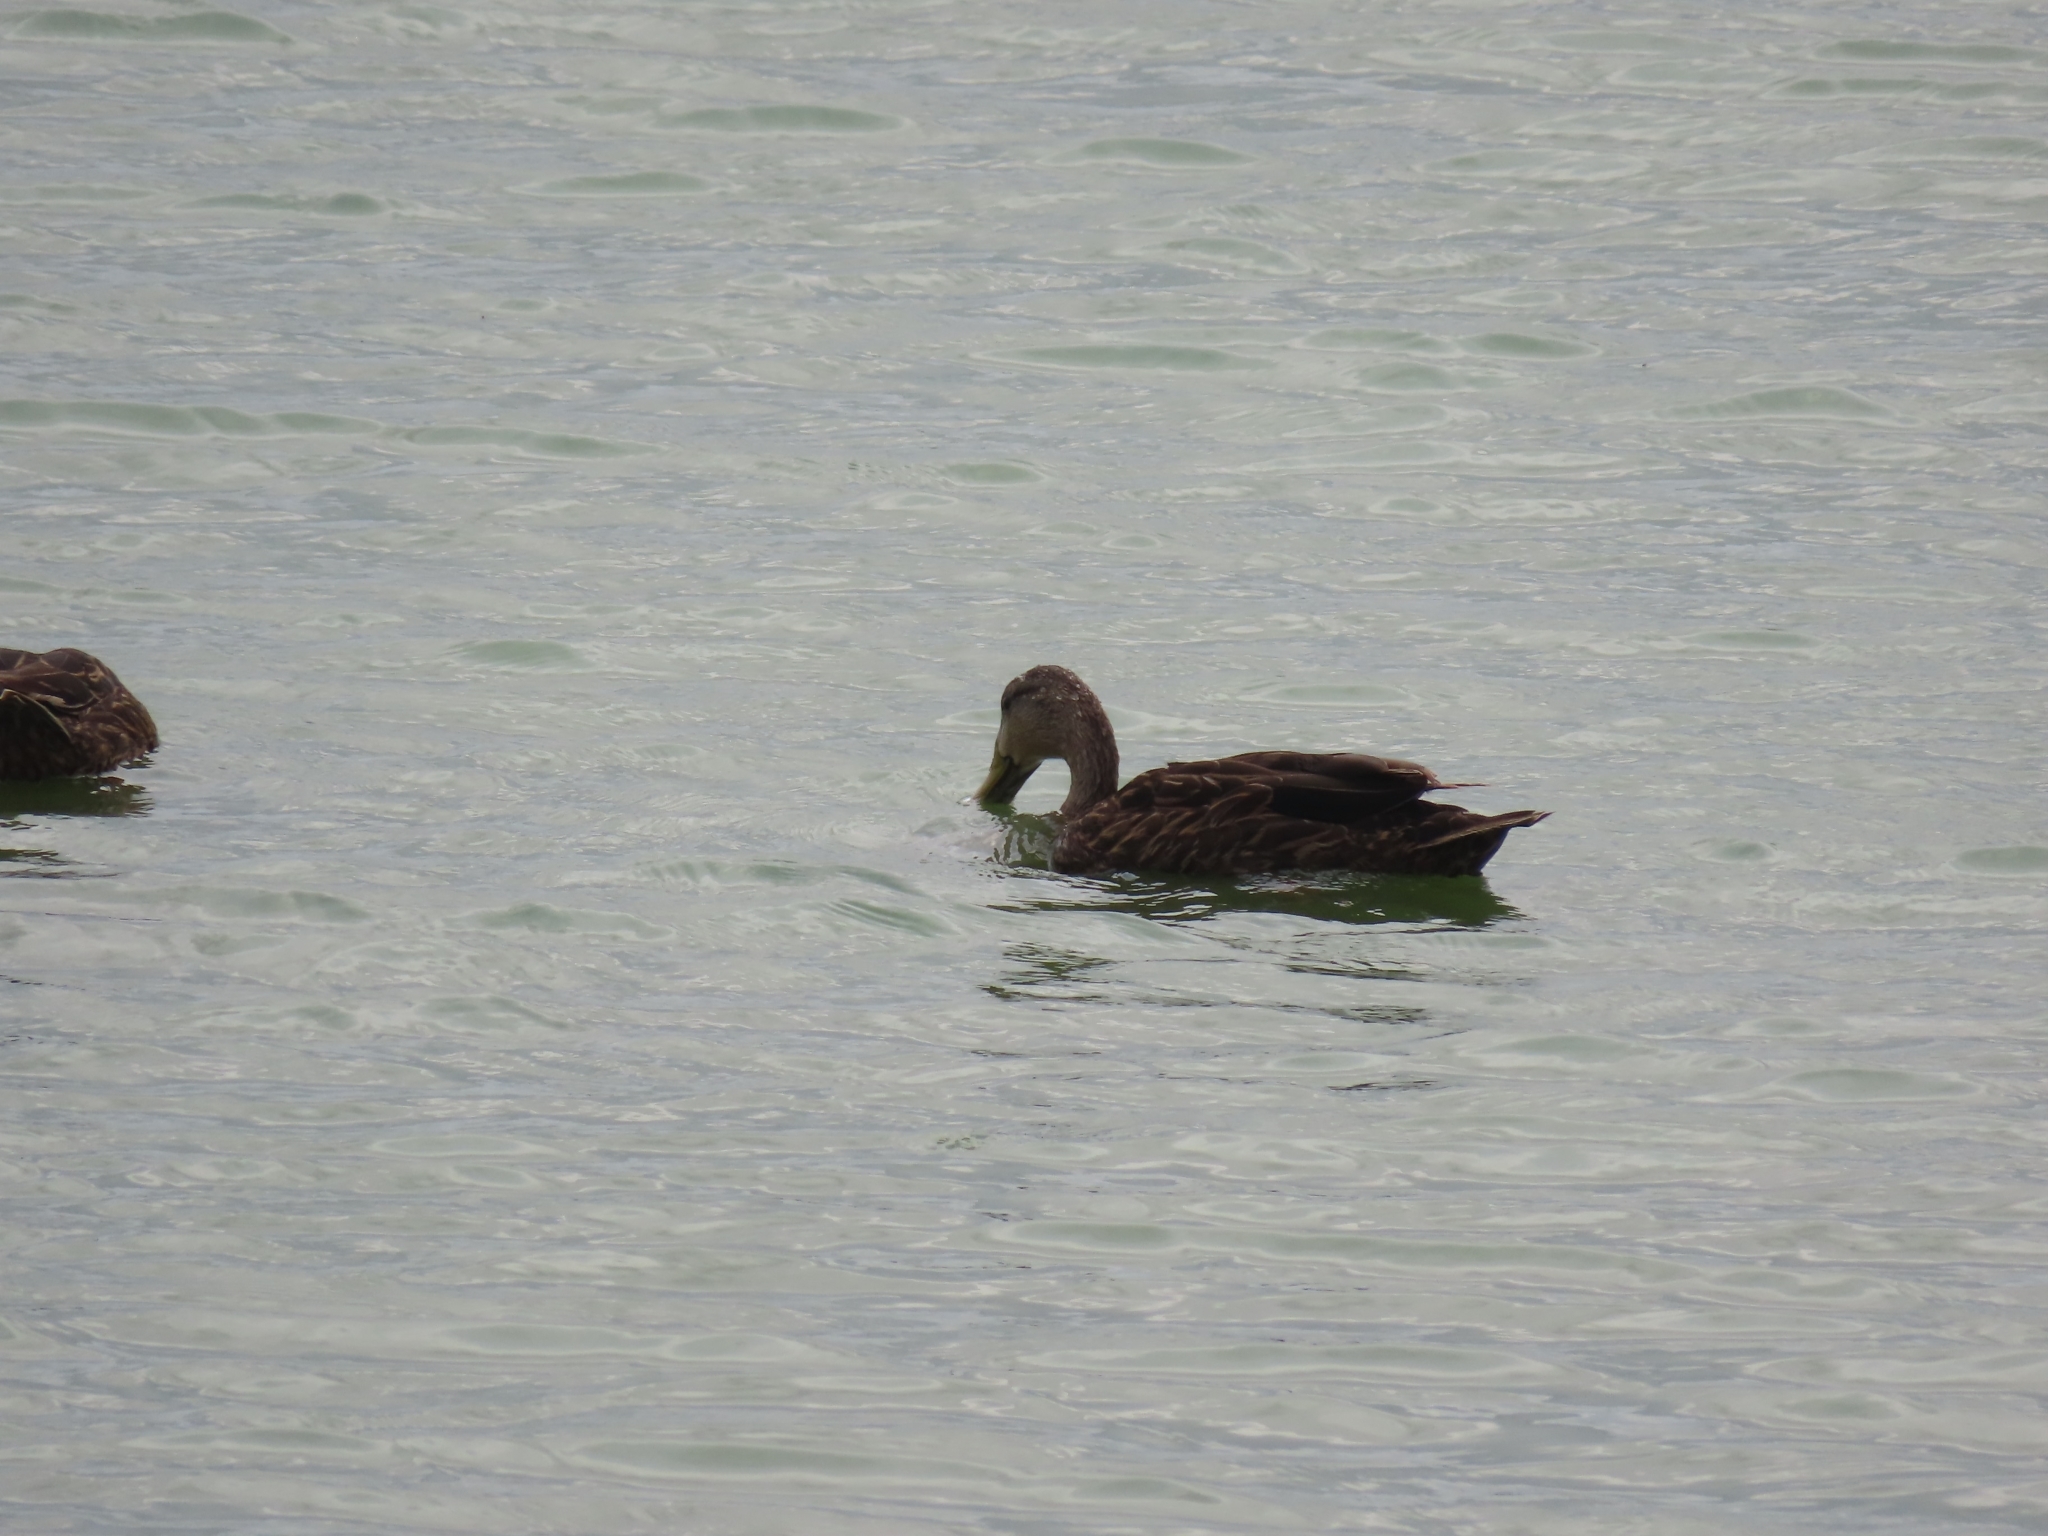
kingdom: Animalia
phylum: Chordata
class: Aves
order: Anseriformes
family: Anatidae
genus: Anas
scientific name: Anas fulvigula
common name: Mottled duck
